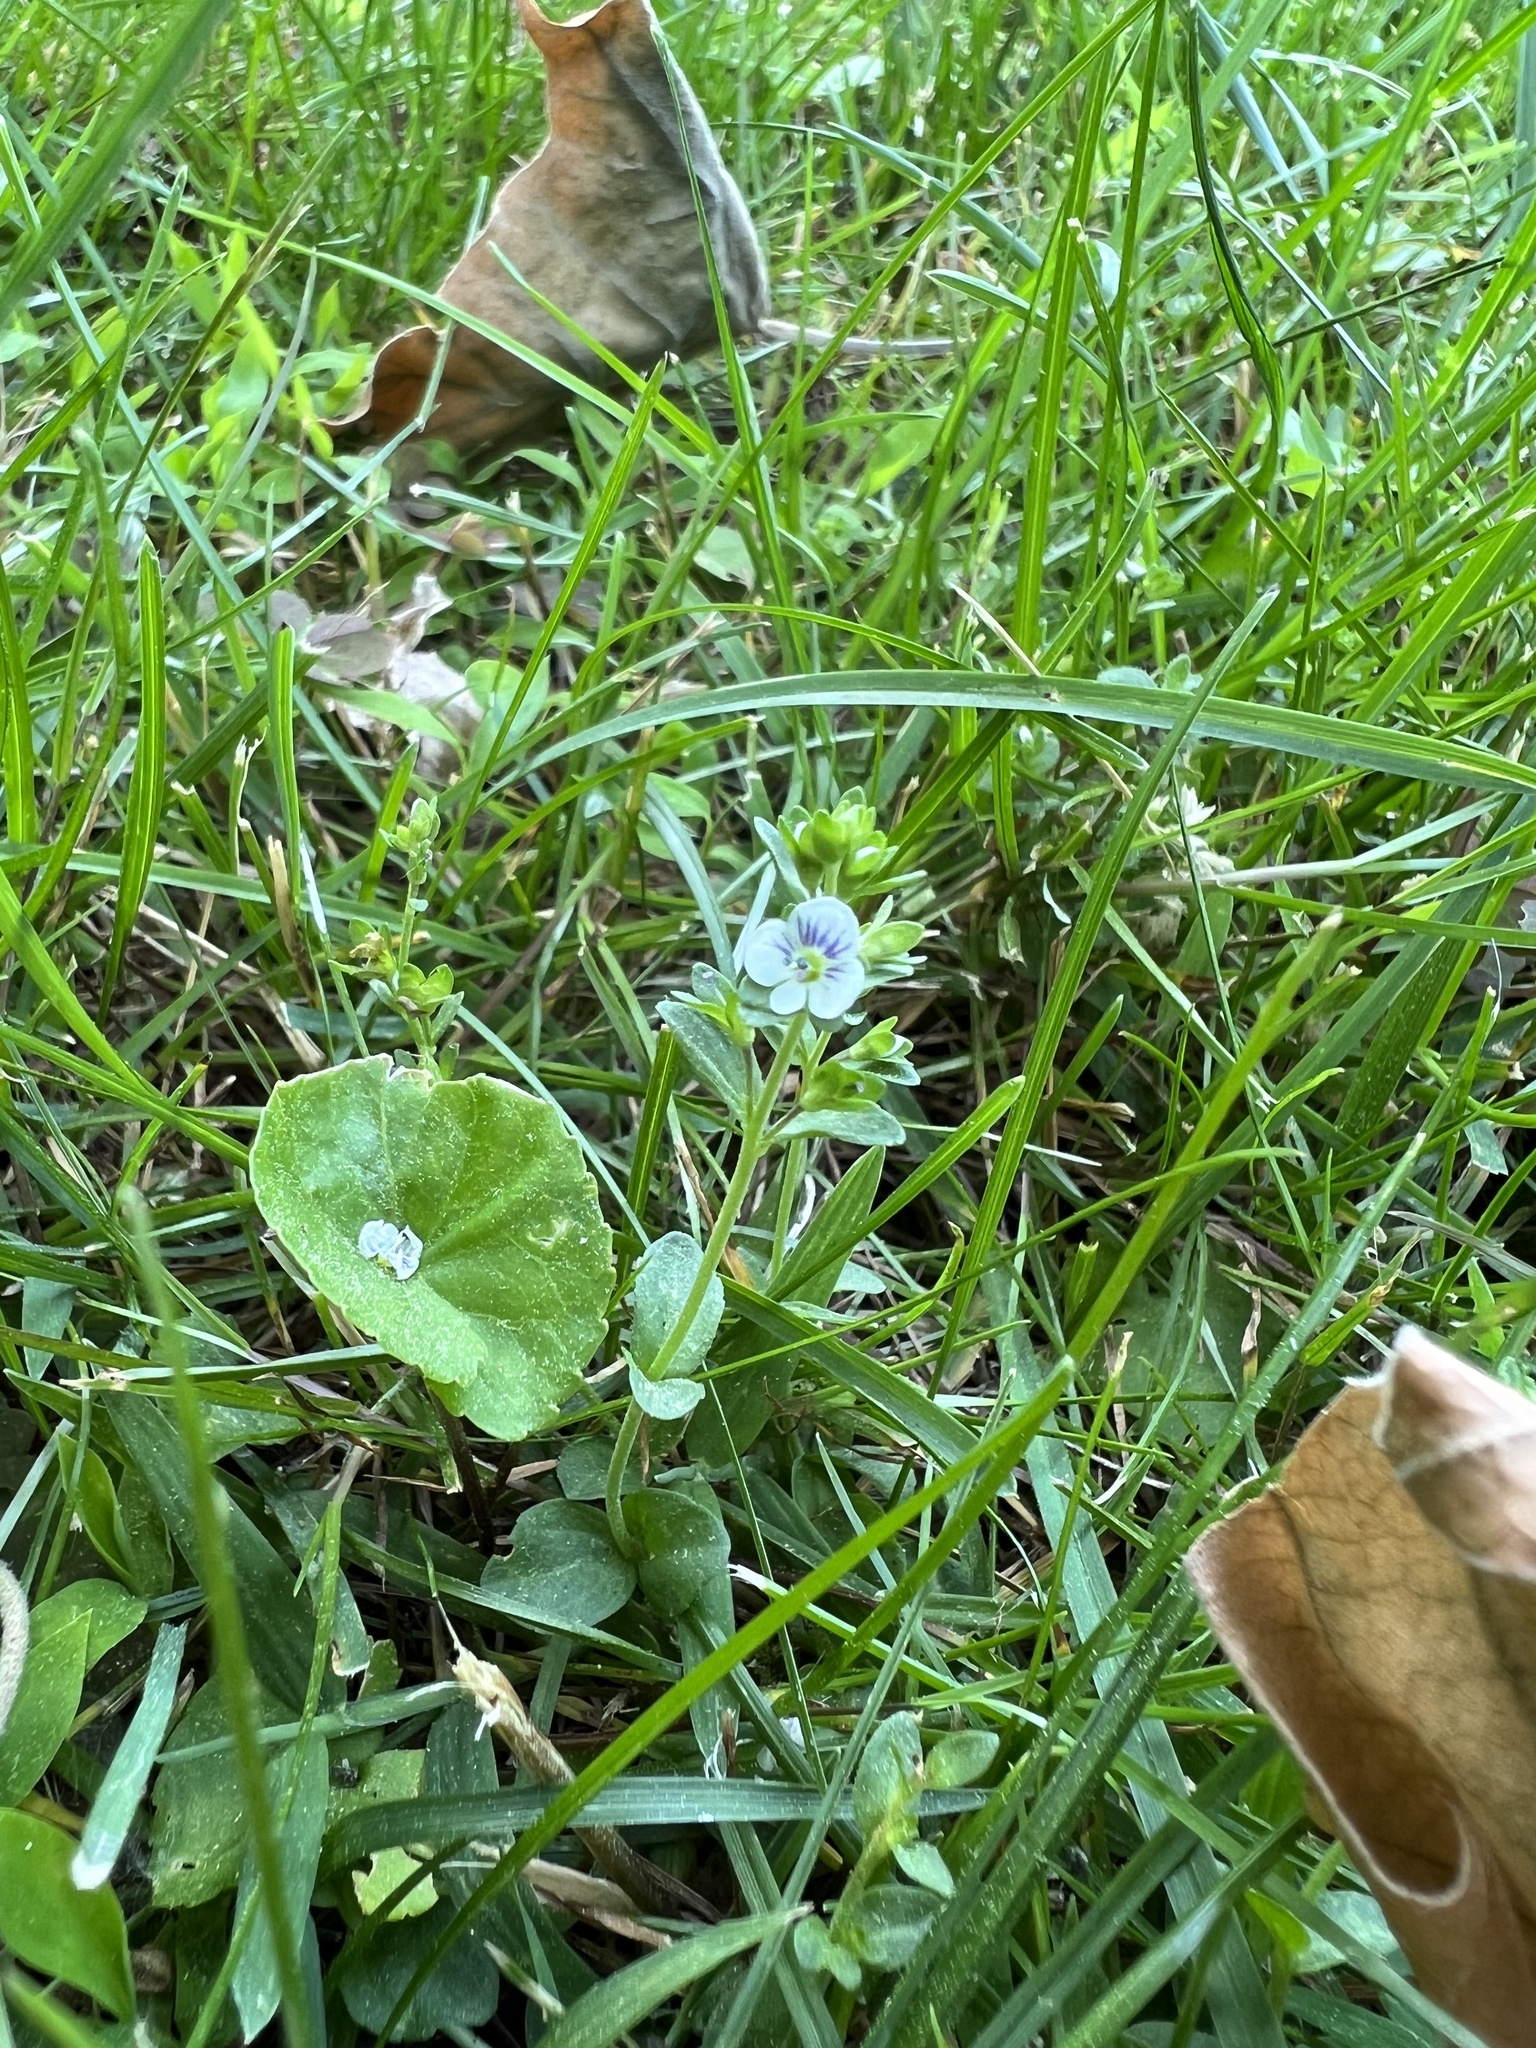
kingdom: Plantae
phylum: Tracheophyta
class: Magnoliopsida
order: Lamiales
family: Plantaginaceae
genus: Veronica
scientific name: Veronica serpyllifolia
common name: Thyme-leaved speedwell
